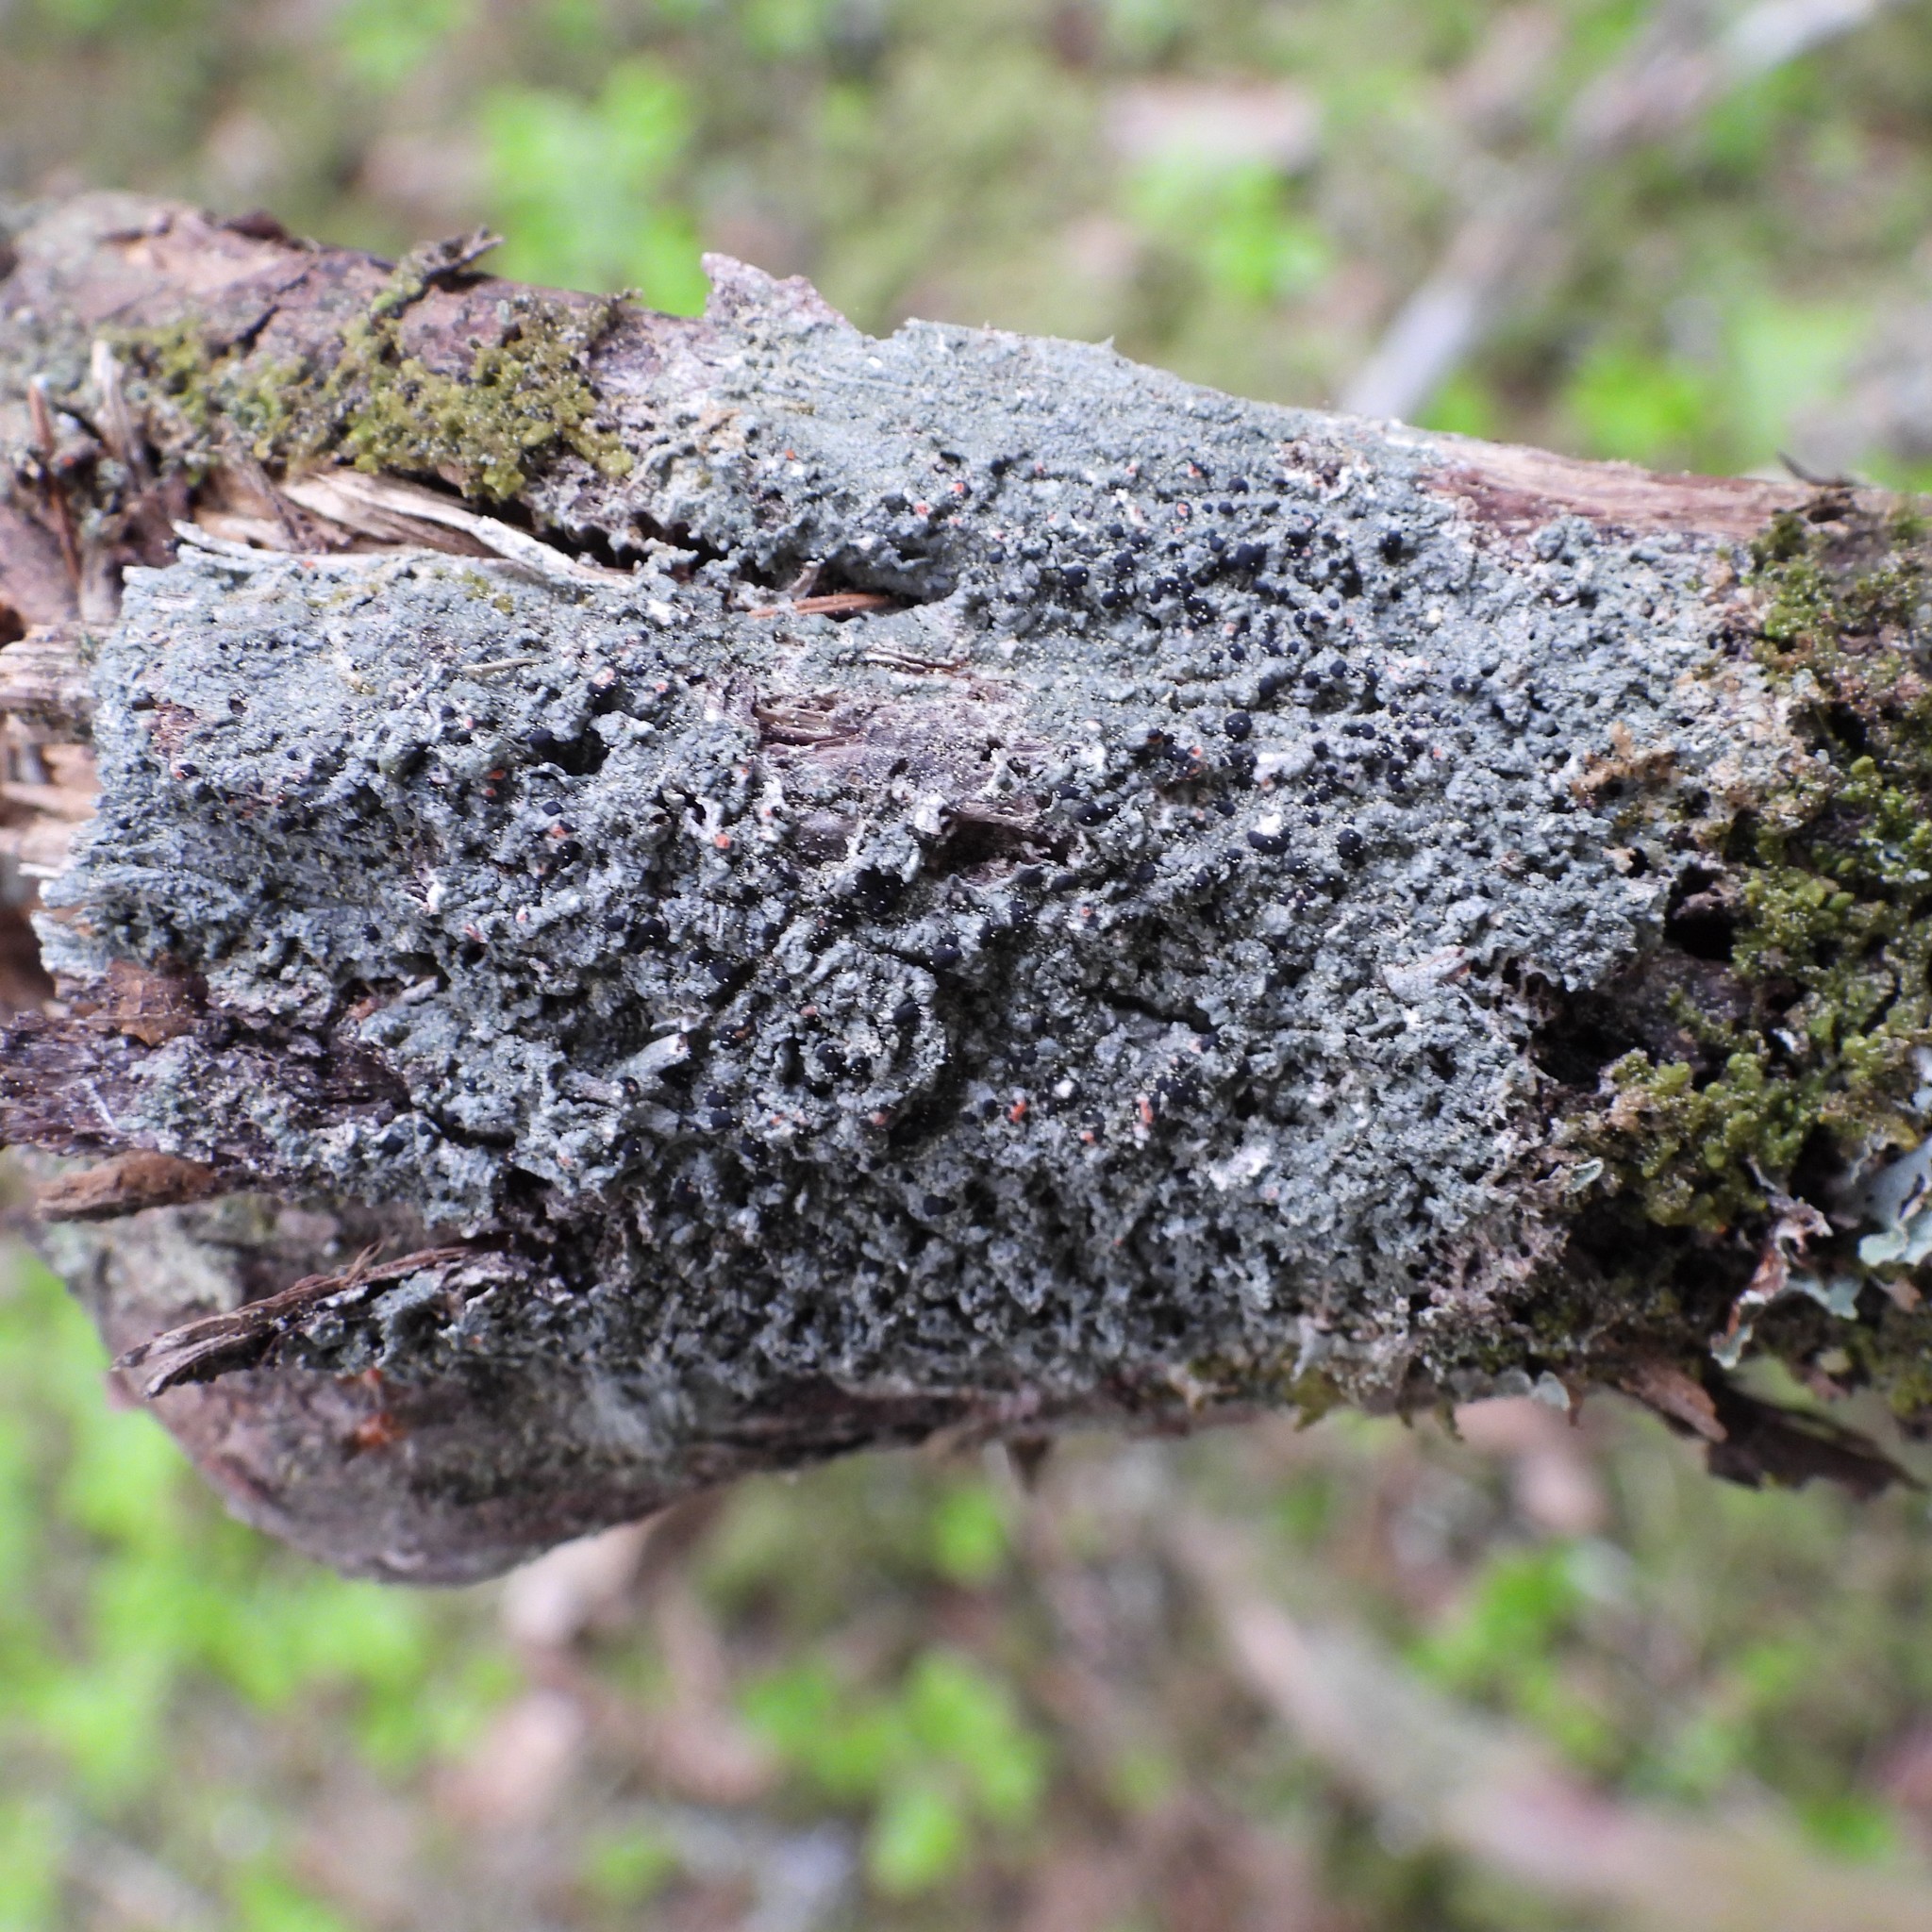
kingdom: Fungi
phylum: Ascomycota
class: Lecanoromycetes
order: Lecanorales
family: Tephromelataceae
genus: Mycoblastus
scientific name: Mycoblastus sanguinarius
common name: Bloody-heart lichen
